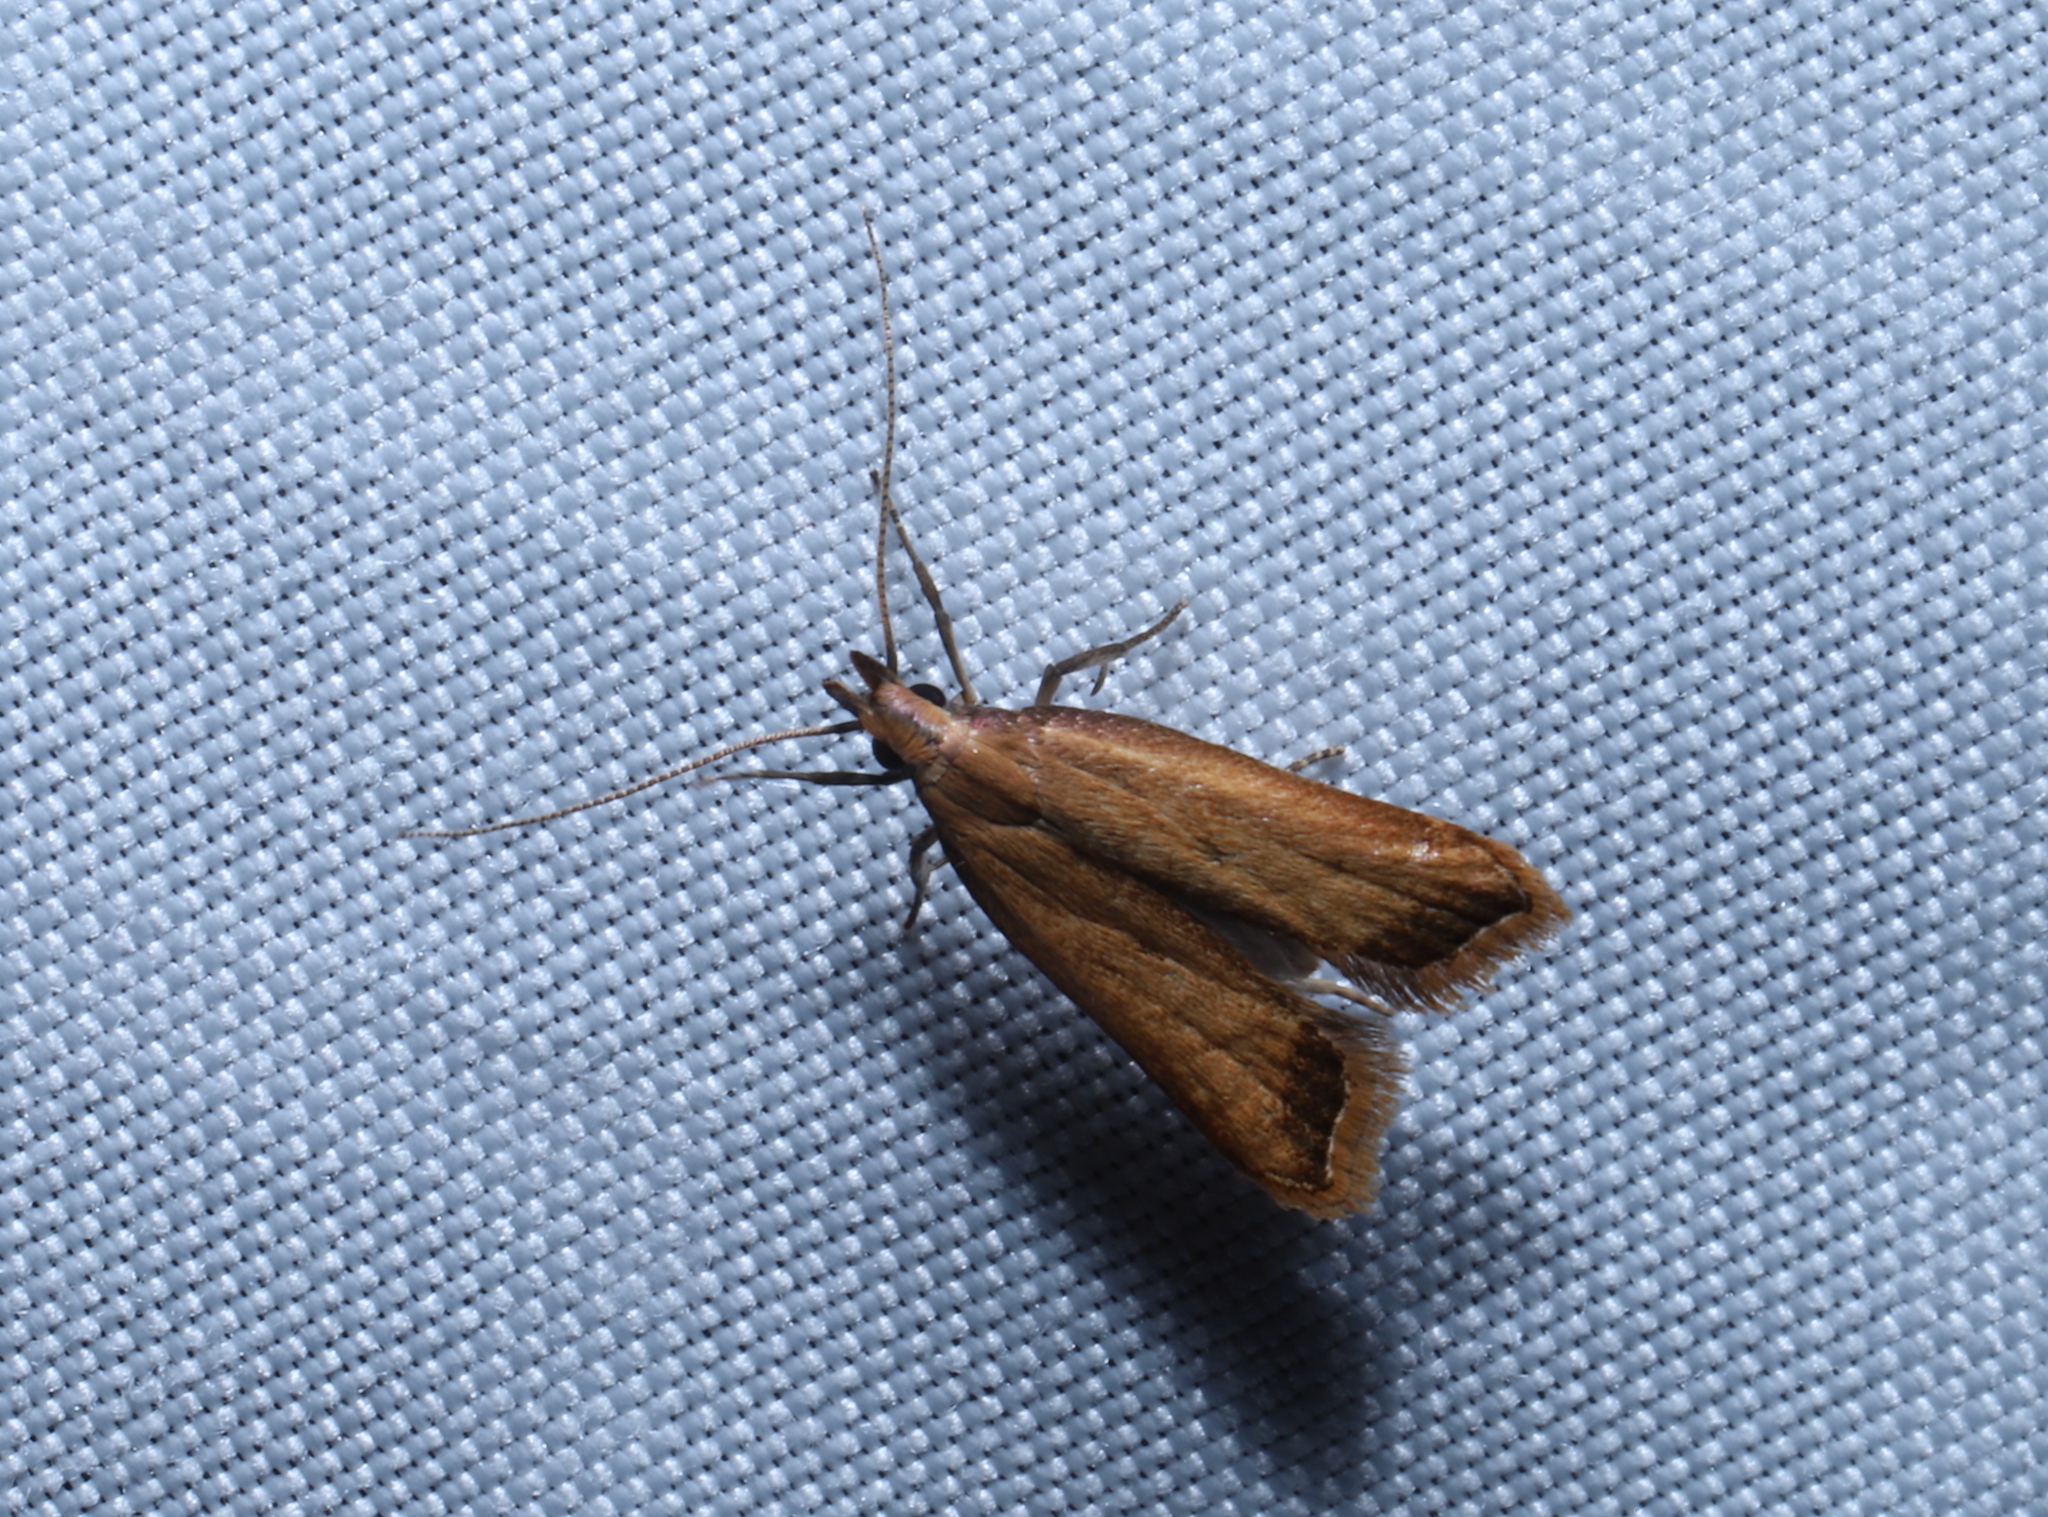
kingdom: Animalia
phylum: Arthropoda
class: Insecta
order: Lepidoptera
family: Gelechiidae
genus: Dichomeris
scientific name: Dichomeris heriguronis
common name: Black-edged dichomeris moth
